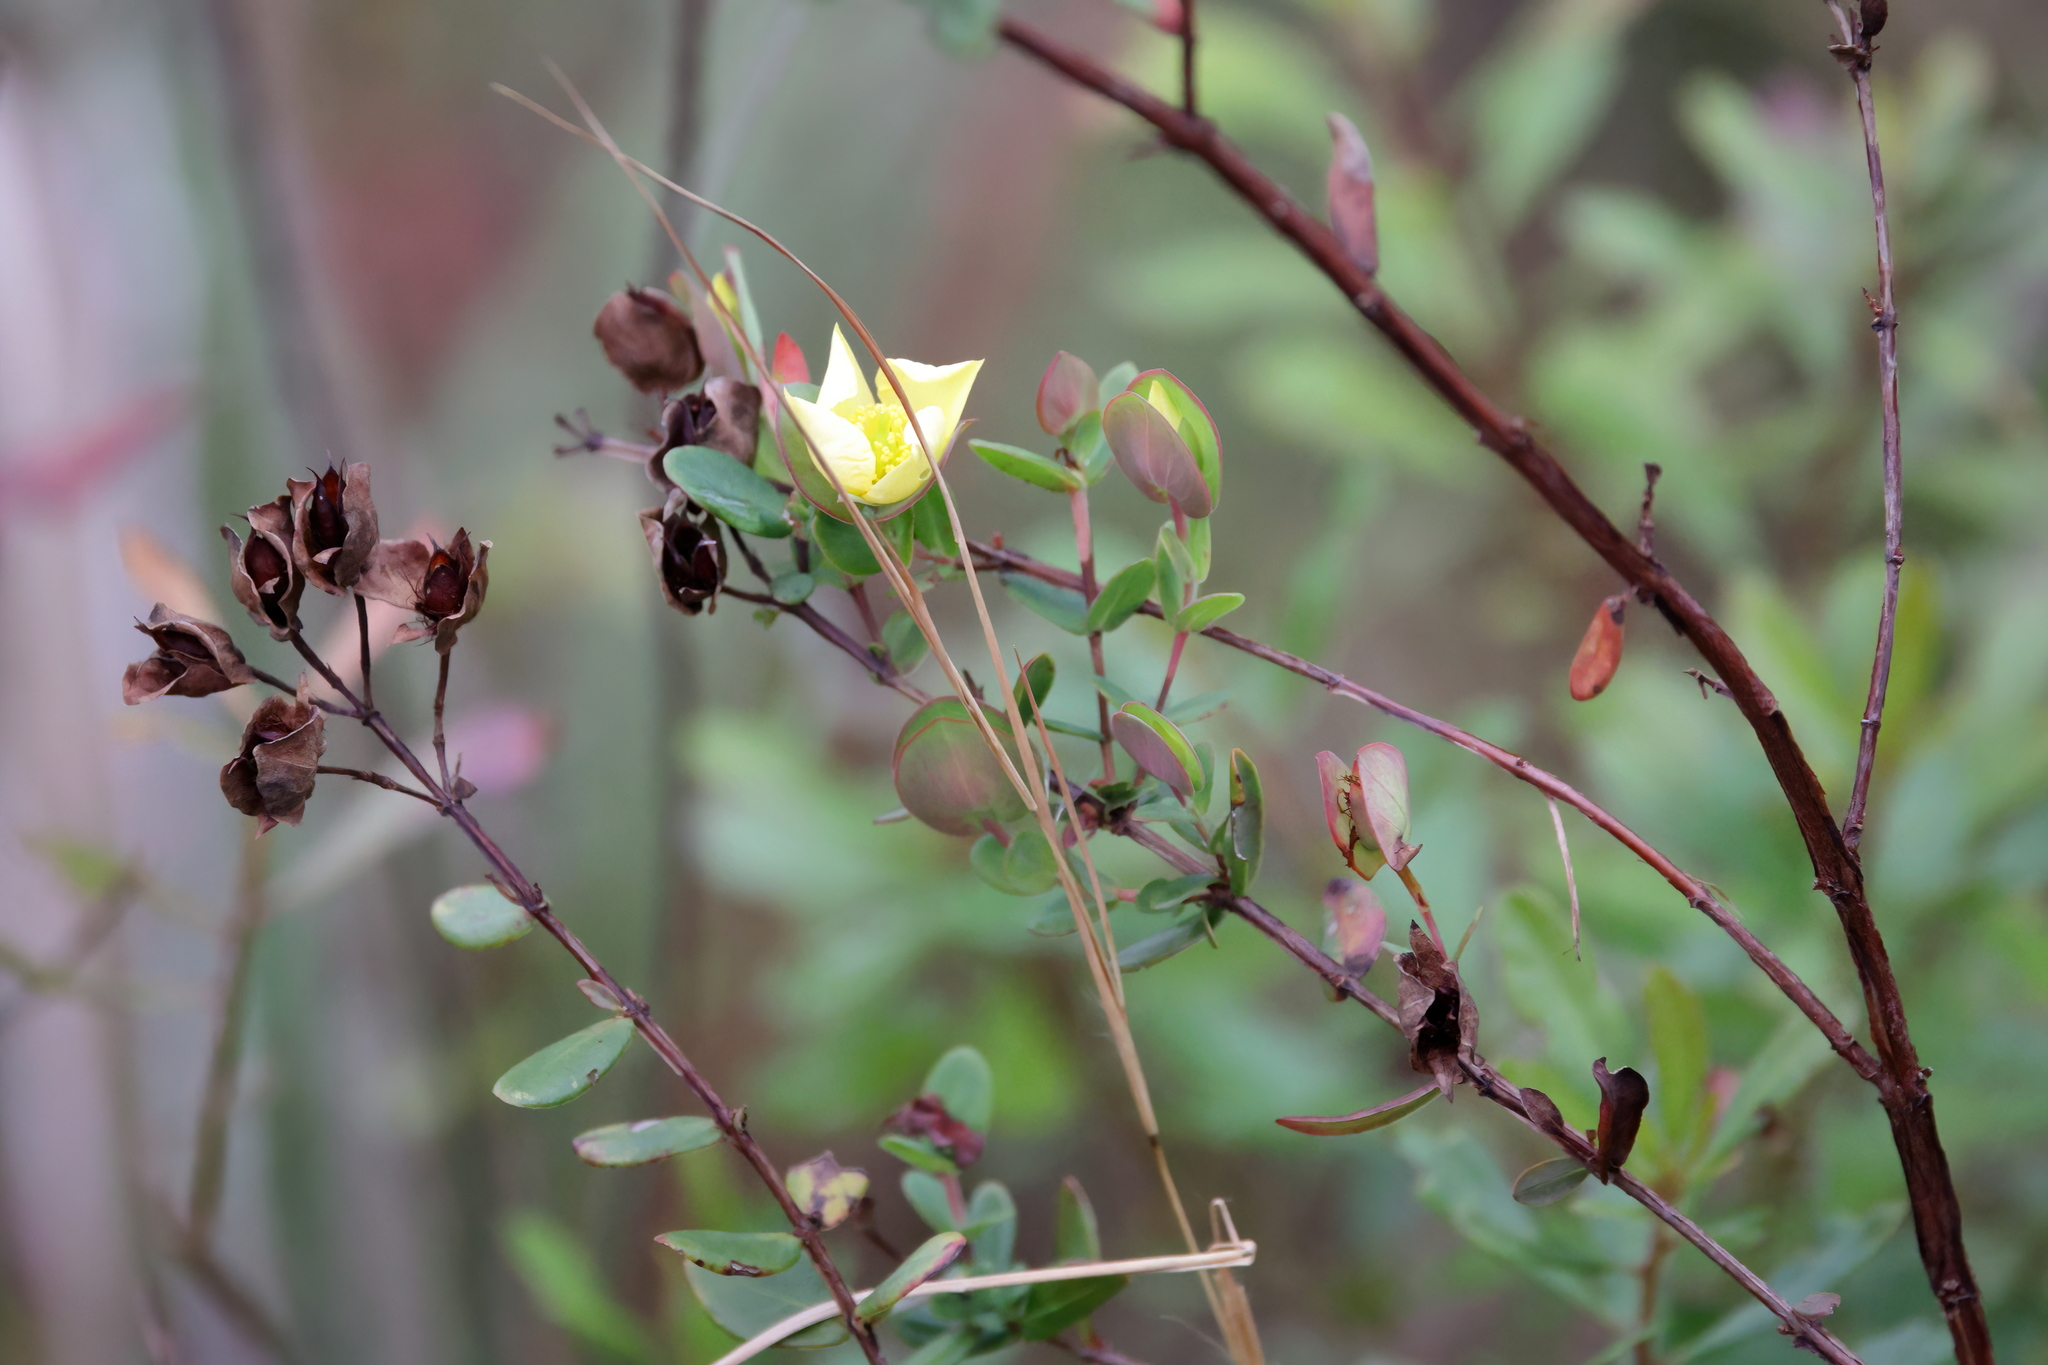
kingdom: Plantae
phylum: Tracheophyta
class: Magnoliopsida
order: Malpighiales
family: Hypericaceae
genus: Hypericum
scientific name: Hypericum crux-andreae
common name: St.-peter's-wort
